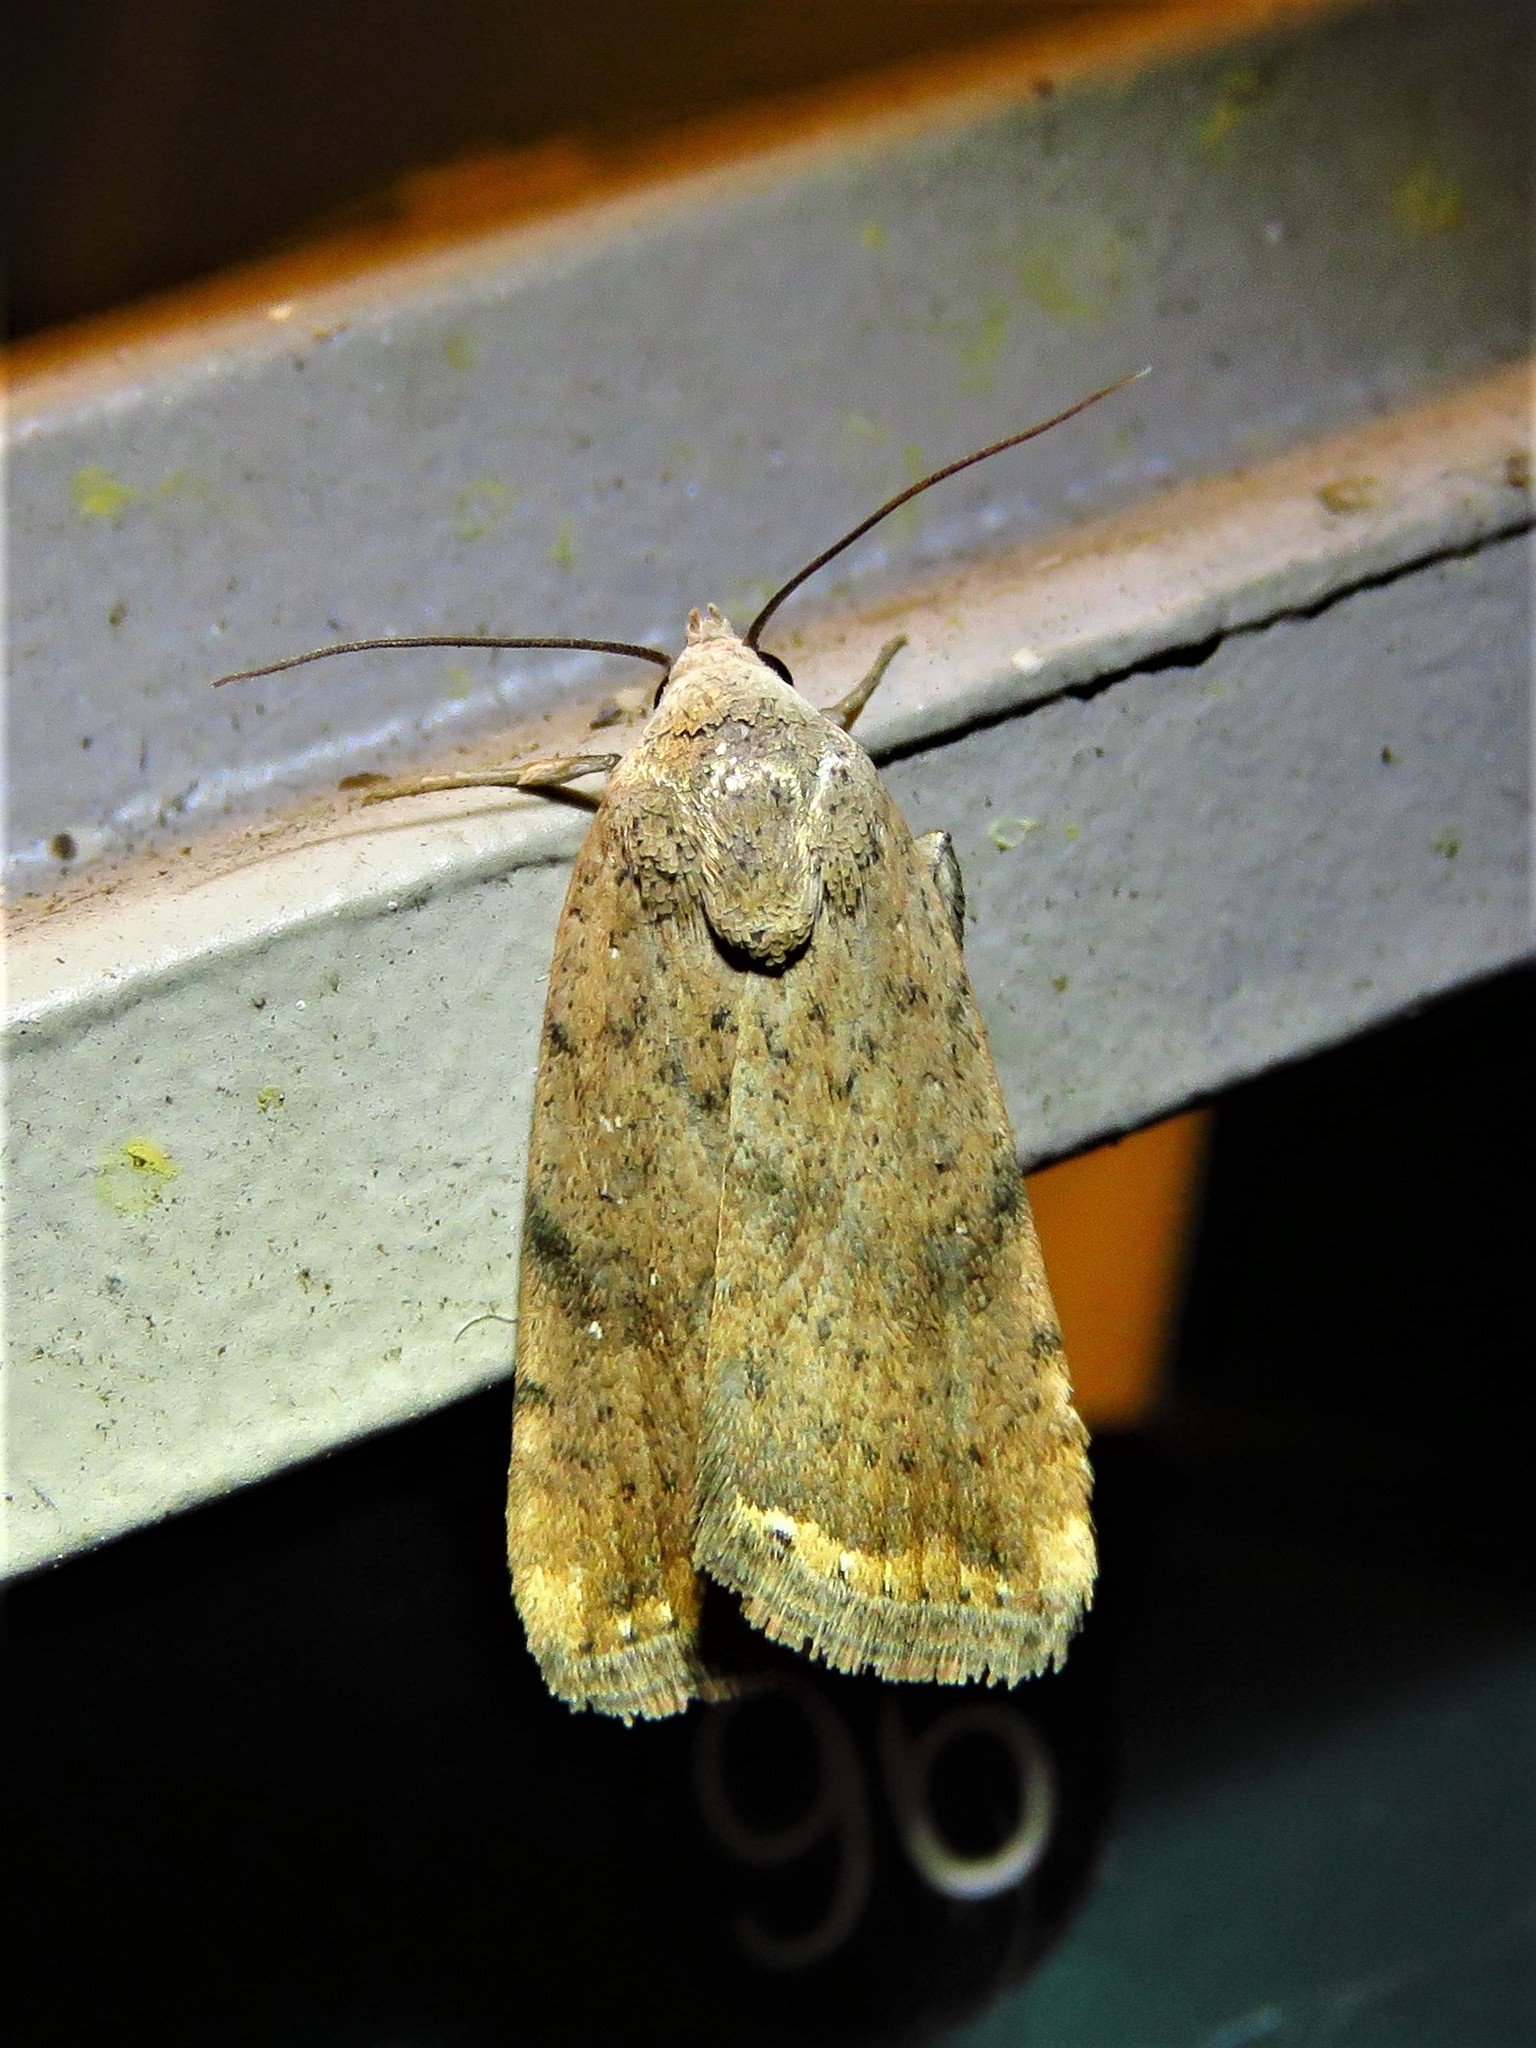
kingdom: Animalia
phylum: Arthropoda
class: Insecta
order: Lepidoptera
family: Noctuidae
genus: Micrathetis
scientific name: Micrathetis triplex
